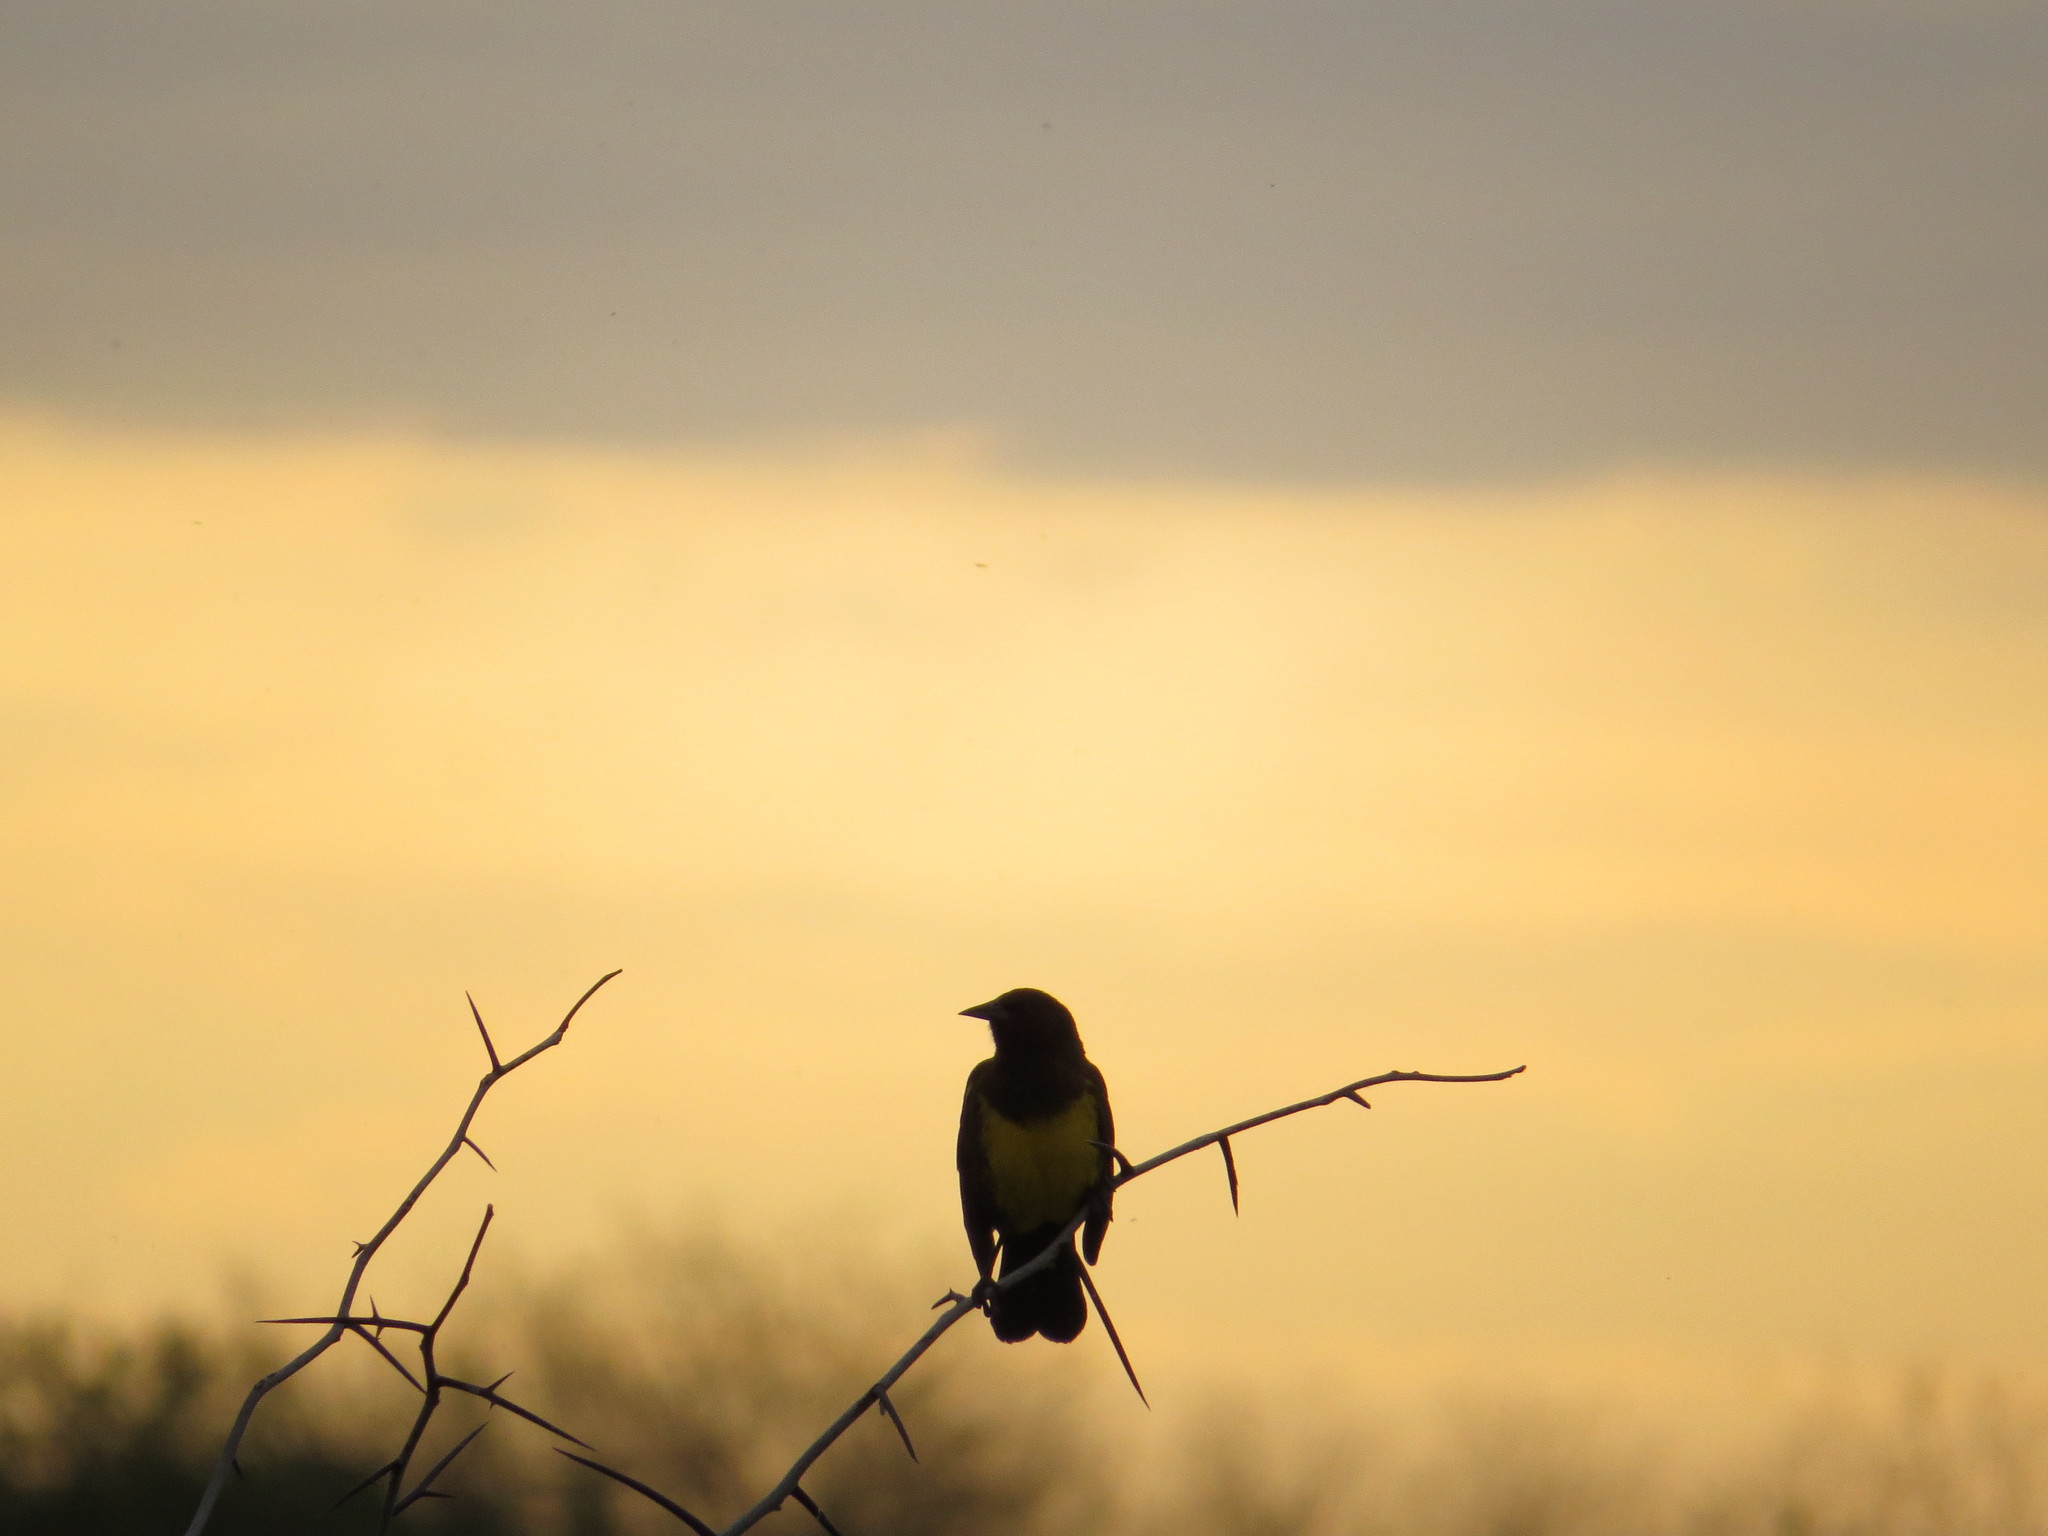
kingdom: Animalia
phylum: Chordata
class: Aves
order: Passeriformes
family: Icteridae
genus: Pseudoleistes
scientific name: Pseudoleistes virescens
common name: Brown-and-yellow marshbird
